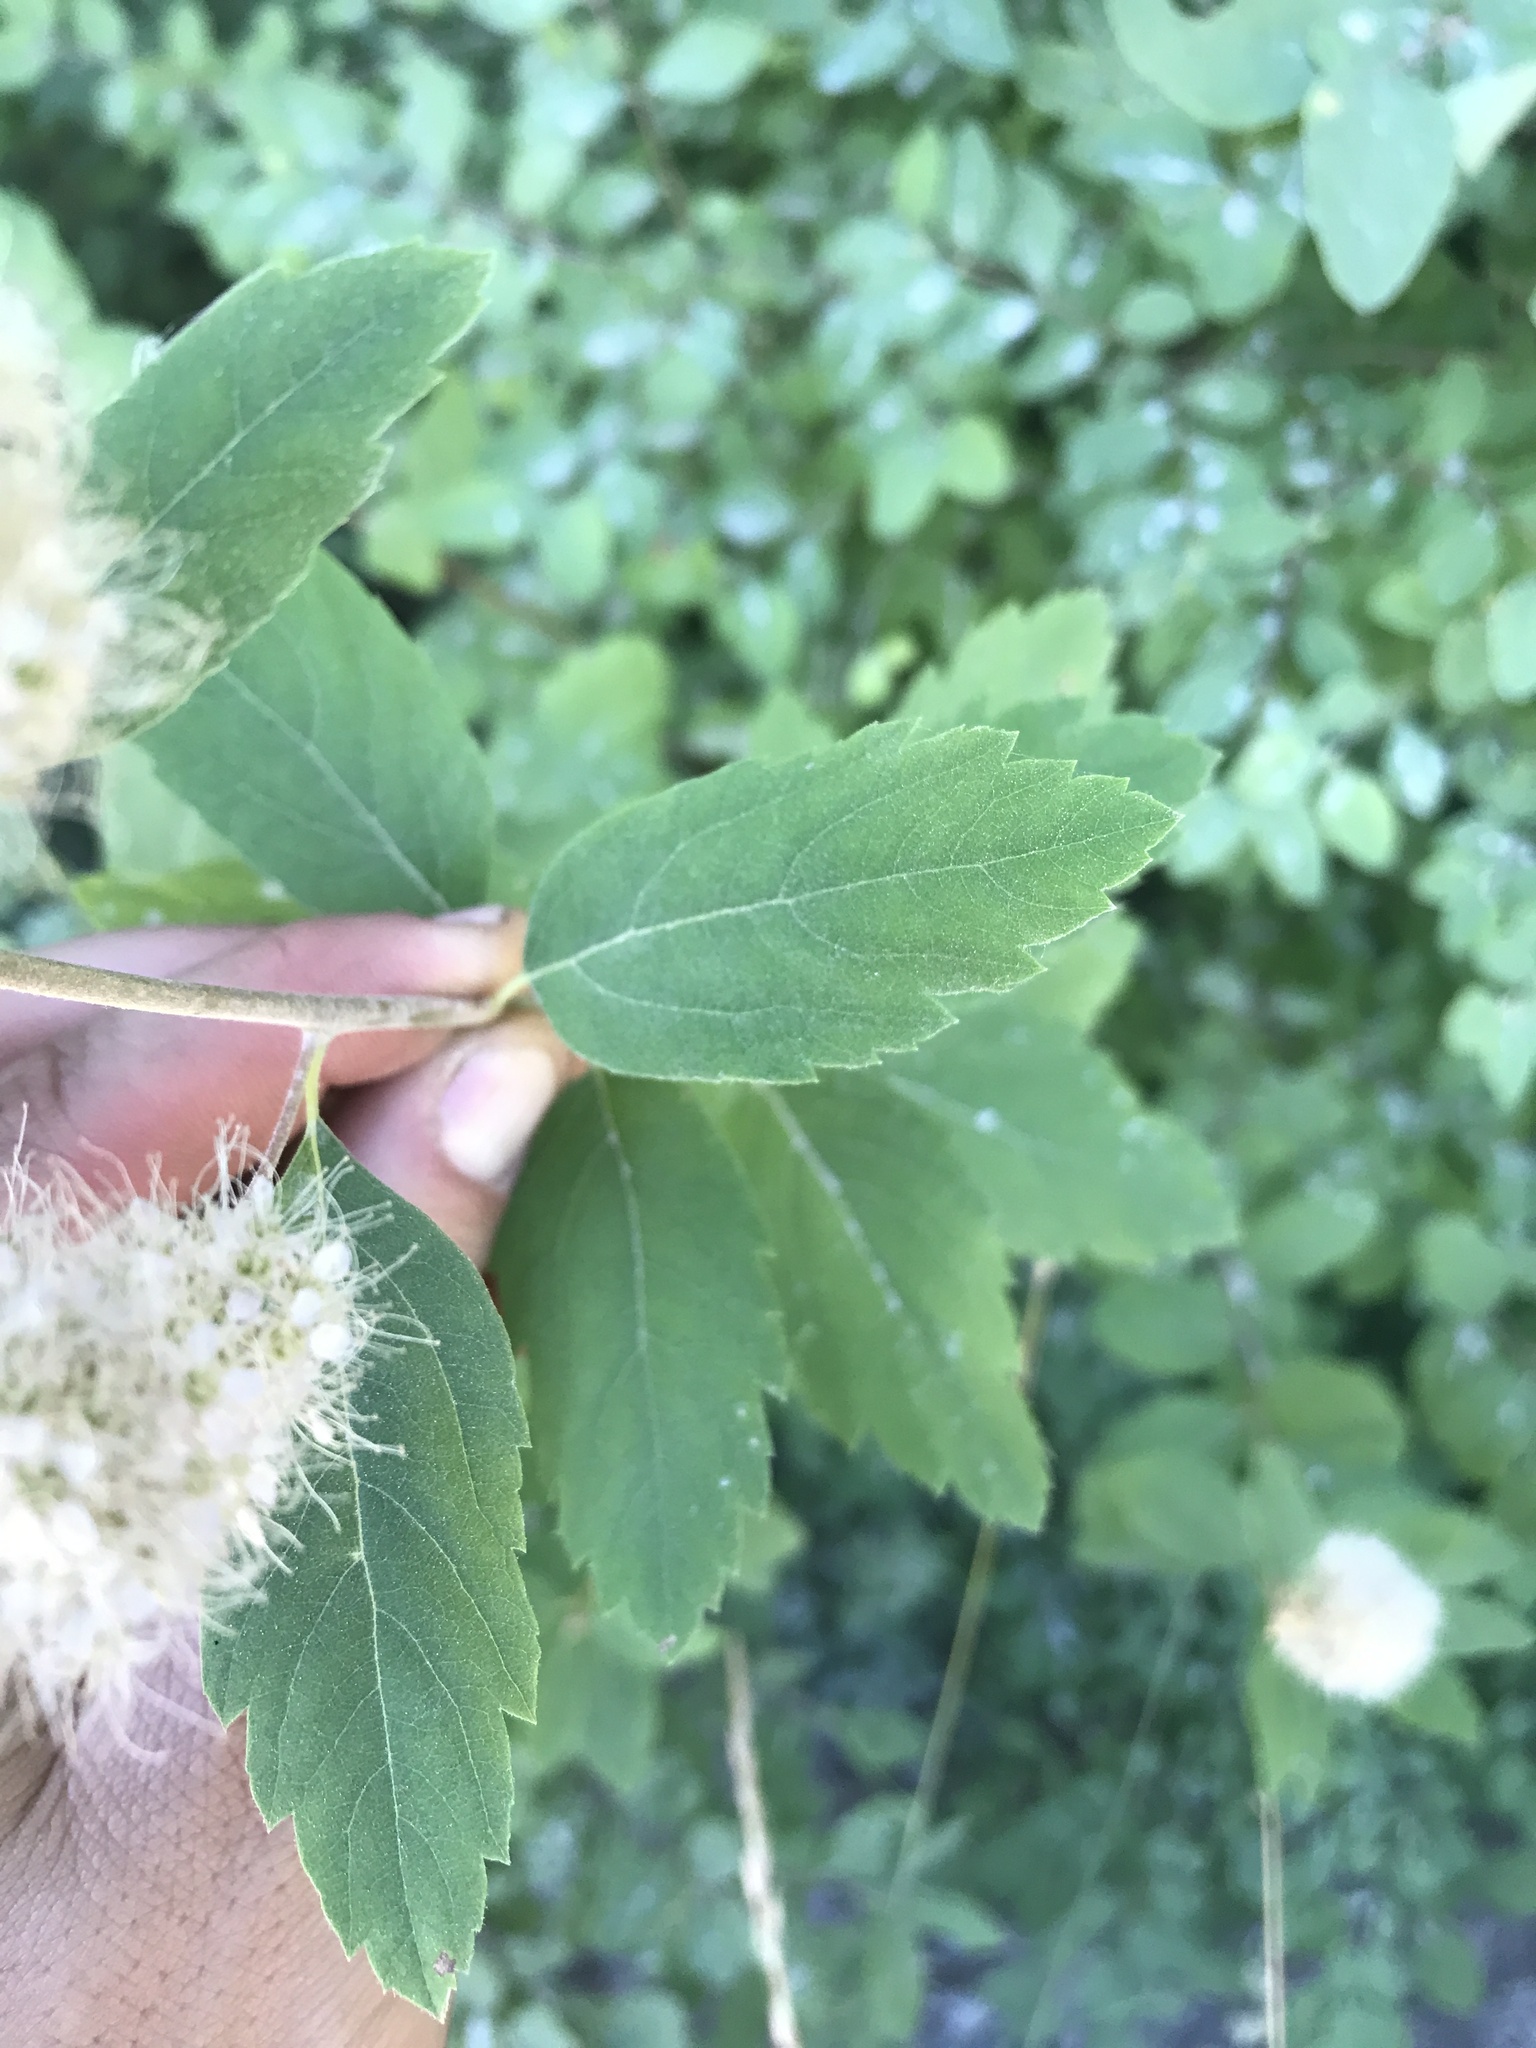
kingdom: Plantae
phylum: Tracheophyta
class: Magnoliopsida
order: Rosales
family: Rosaceae
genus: Spiraea
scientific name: Spiraea pyramidata
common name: Pyramid meadowsweet
